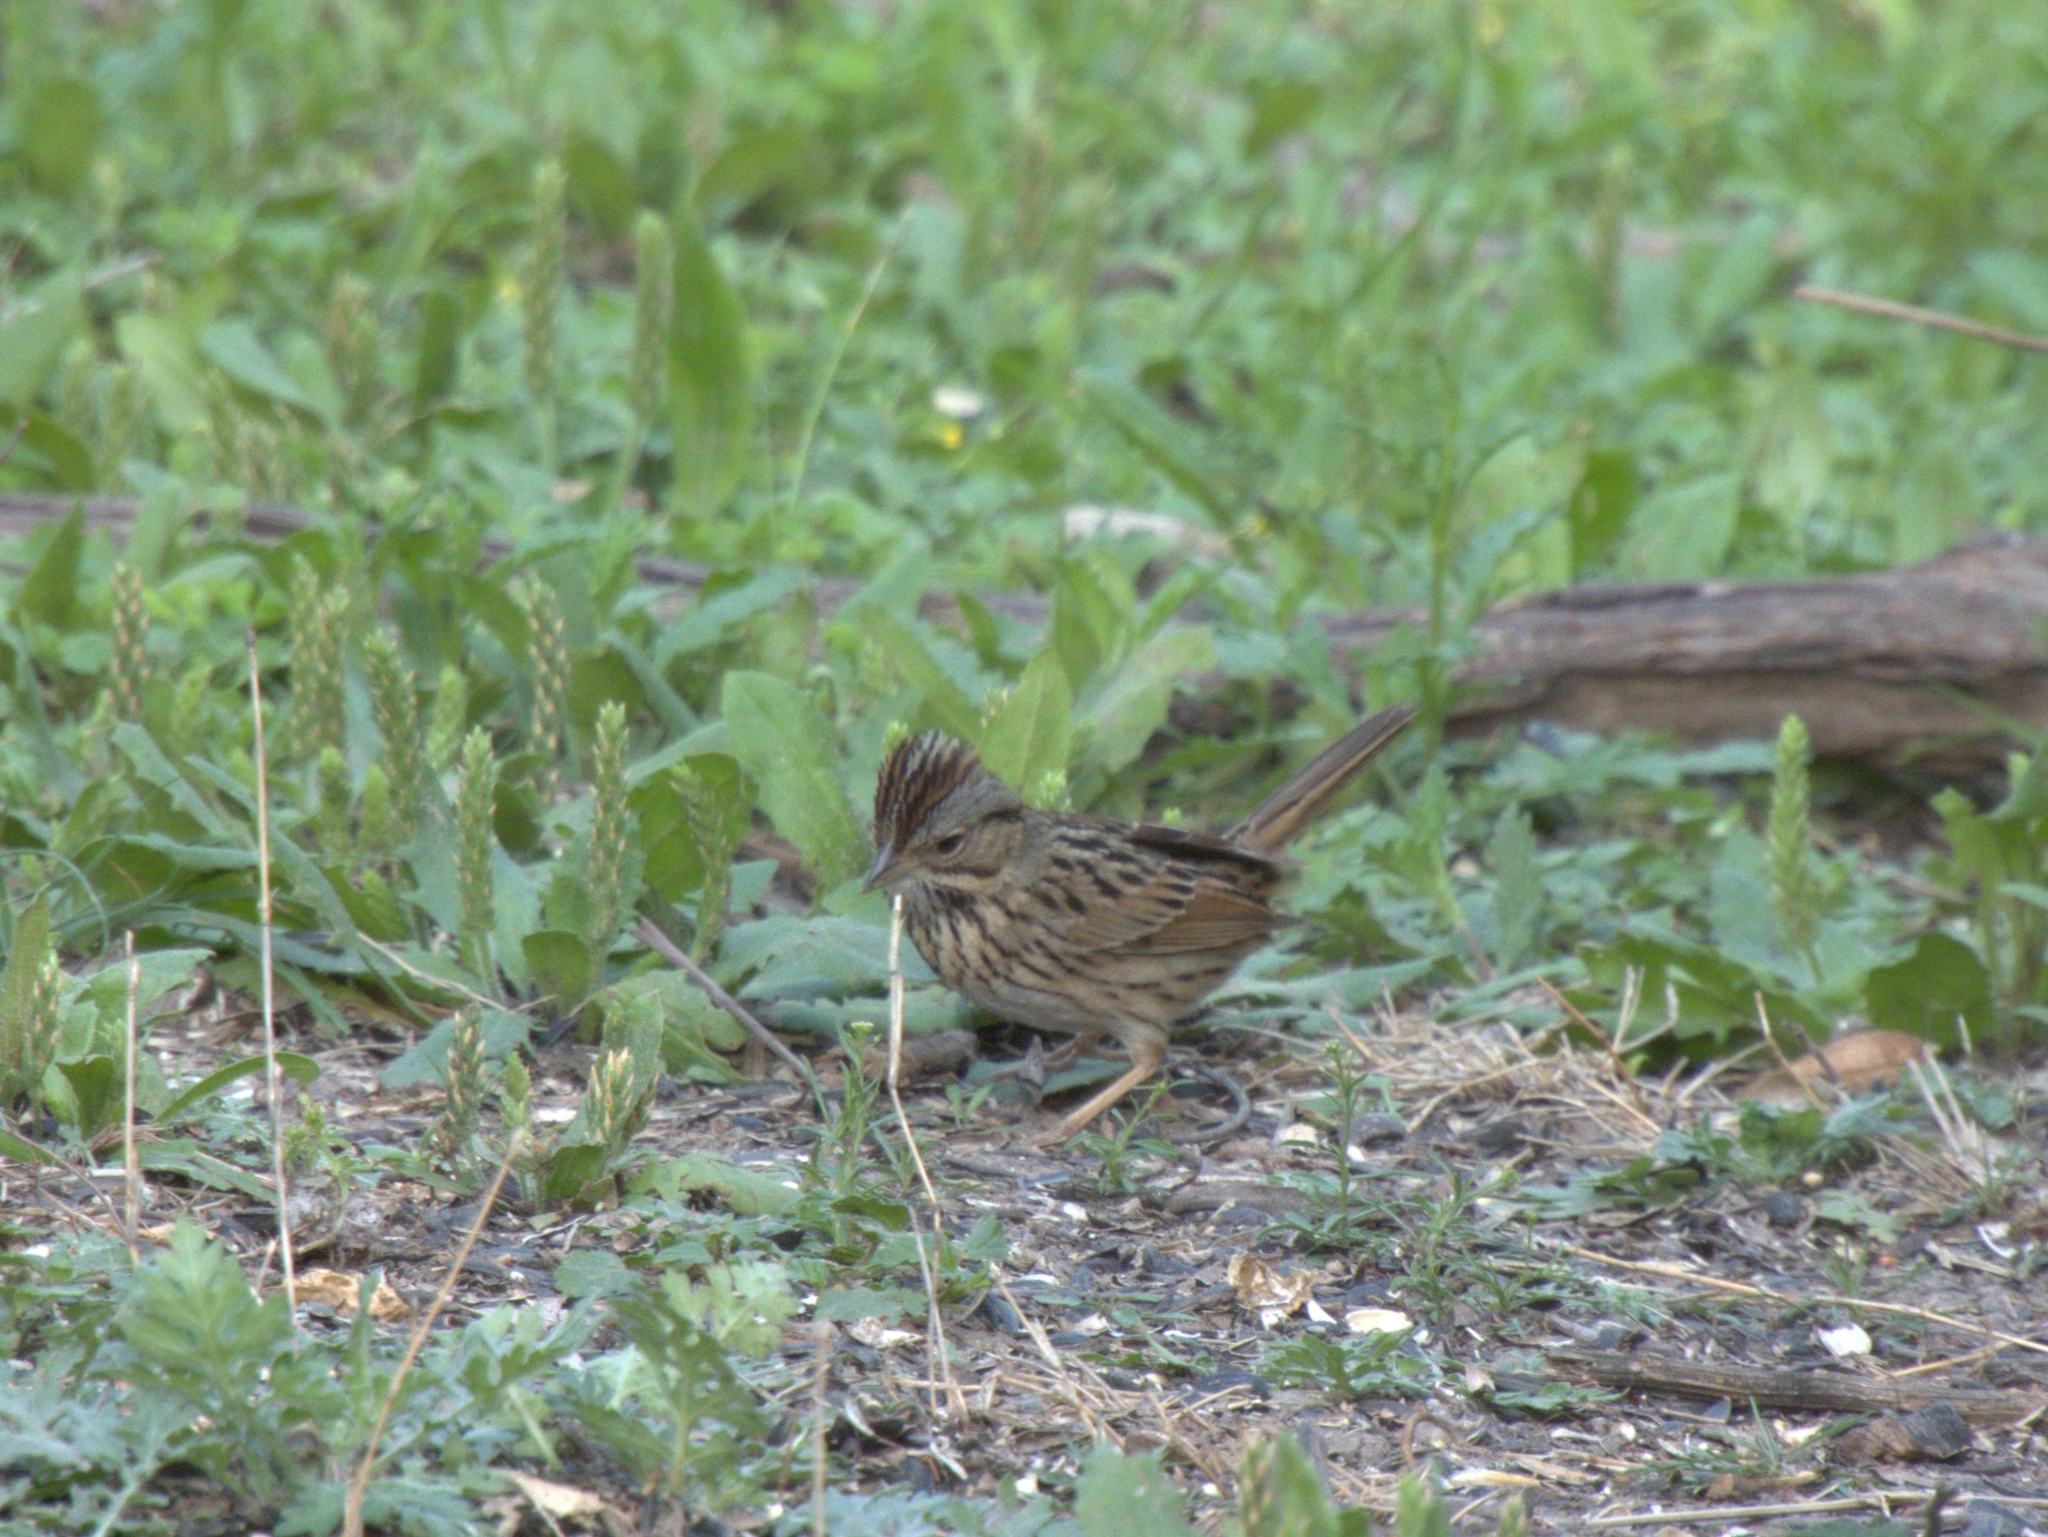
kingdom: Animalia
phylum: Chordata
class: Aves
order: Passeriformes
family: Passerellidae
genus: Melospiza
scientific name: Melospiza lincolnii
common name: Lincoln's sparrow
